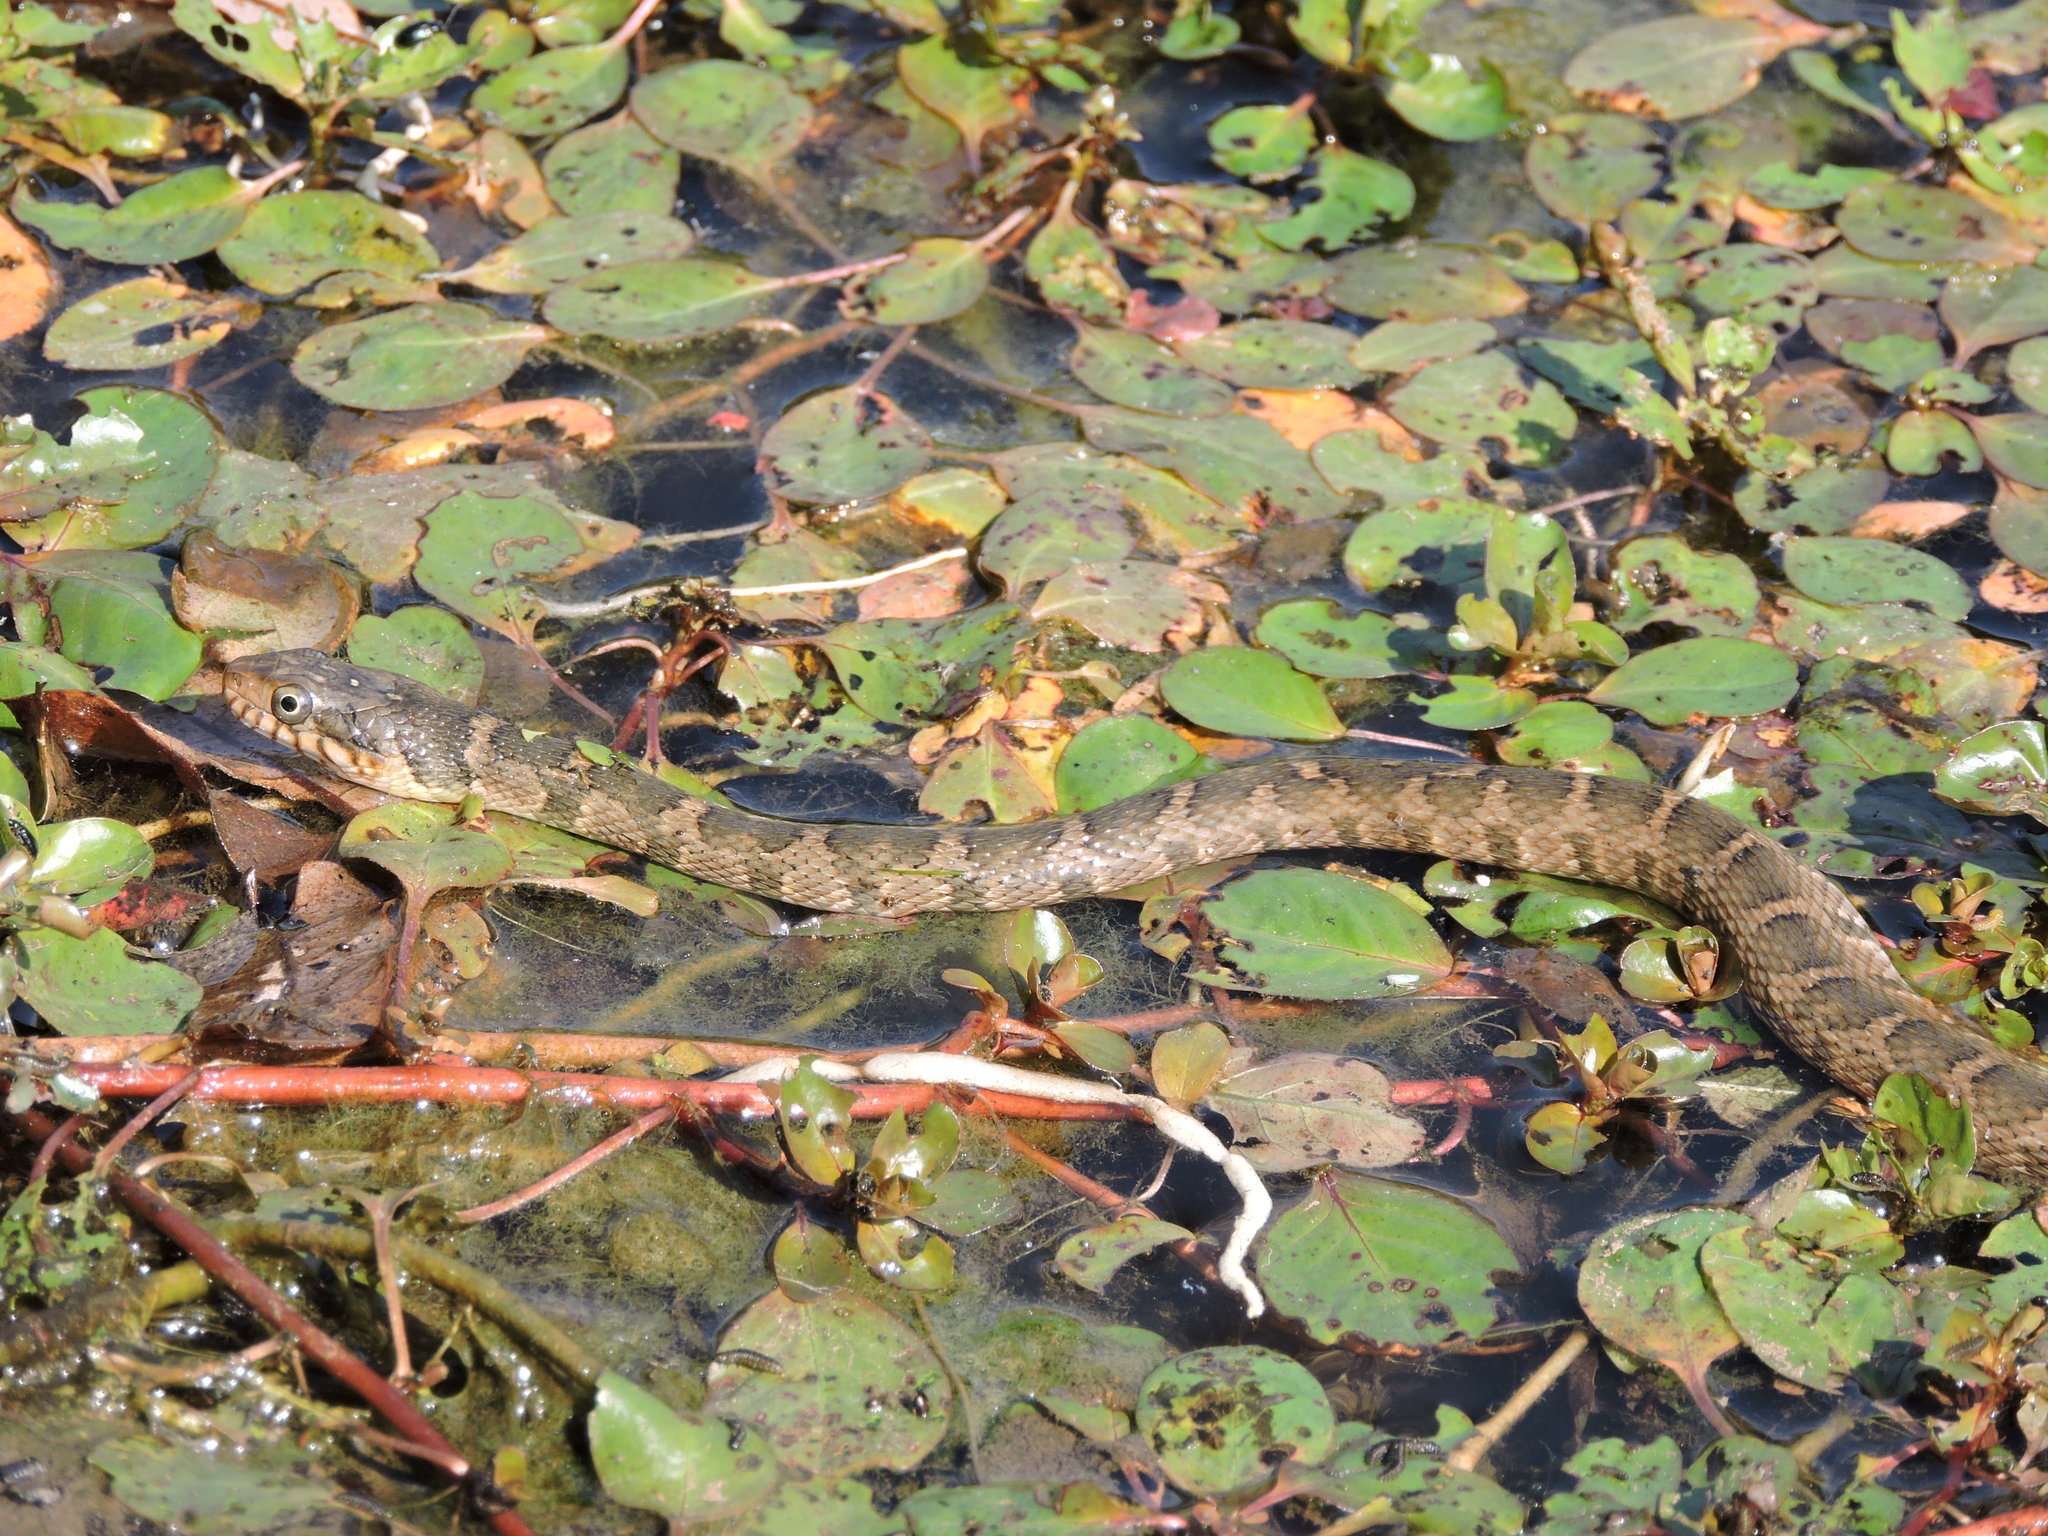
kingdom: Animalia
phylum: Chordata
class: Squamata
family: Colubridae
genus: Nerodia
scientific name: Nerodia erythrogaster
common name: Plainbelly water snake
